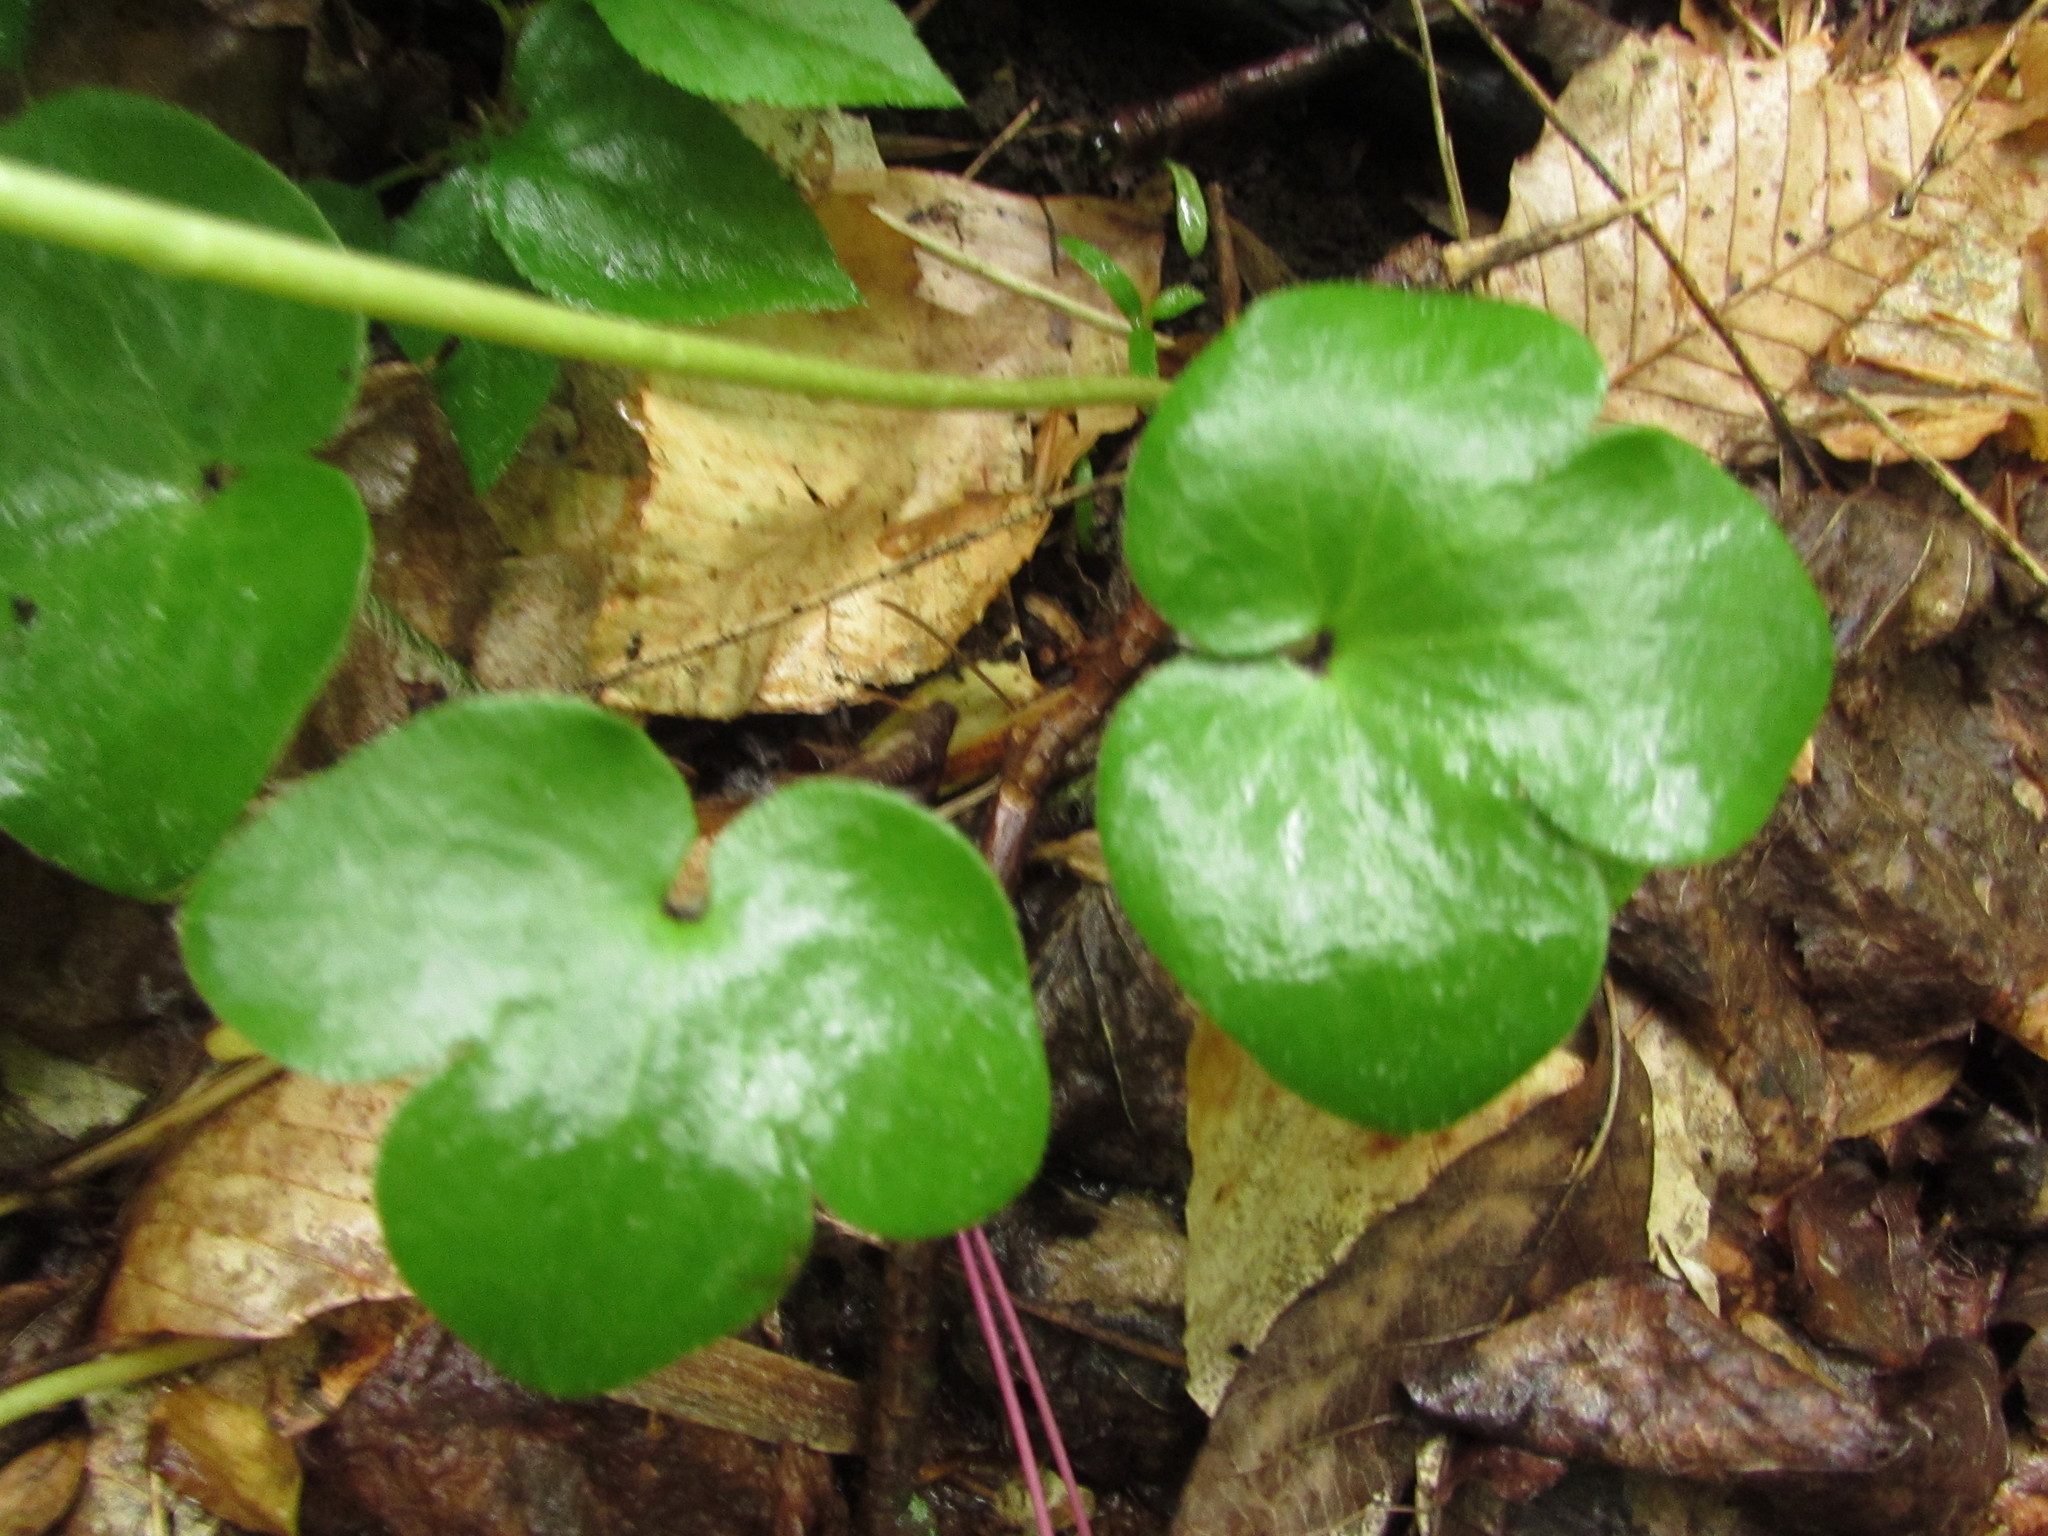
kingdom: Plantae
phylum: Tracheophyta
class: Magnoliopsida
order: Ranunculales
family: Ranunculaceae
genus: Hepatica
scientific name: Hepatica americana
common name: American hepatica
